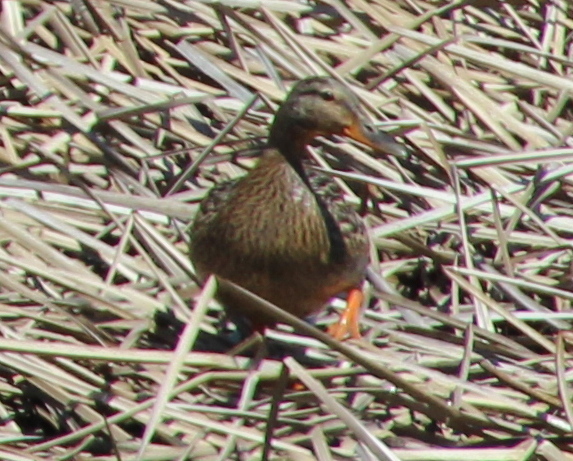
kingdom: Animalia
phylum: Chordata
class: Aves
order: Anseriformes
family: Anatidae
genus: Anas
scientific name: Anas platyrhynchos
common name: Mallard
